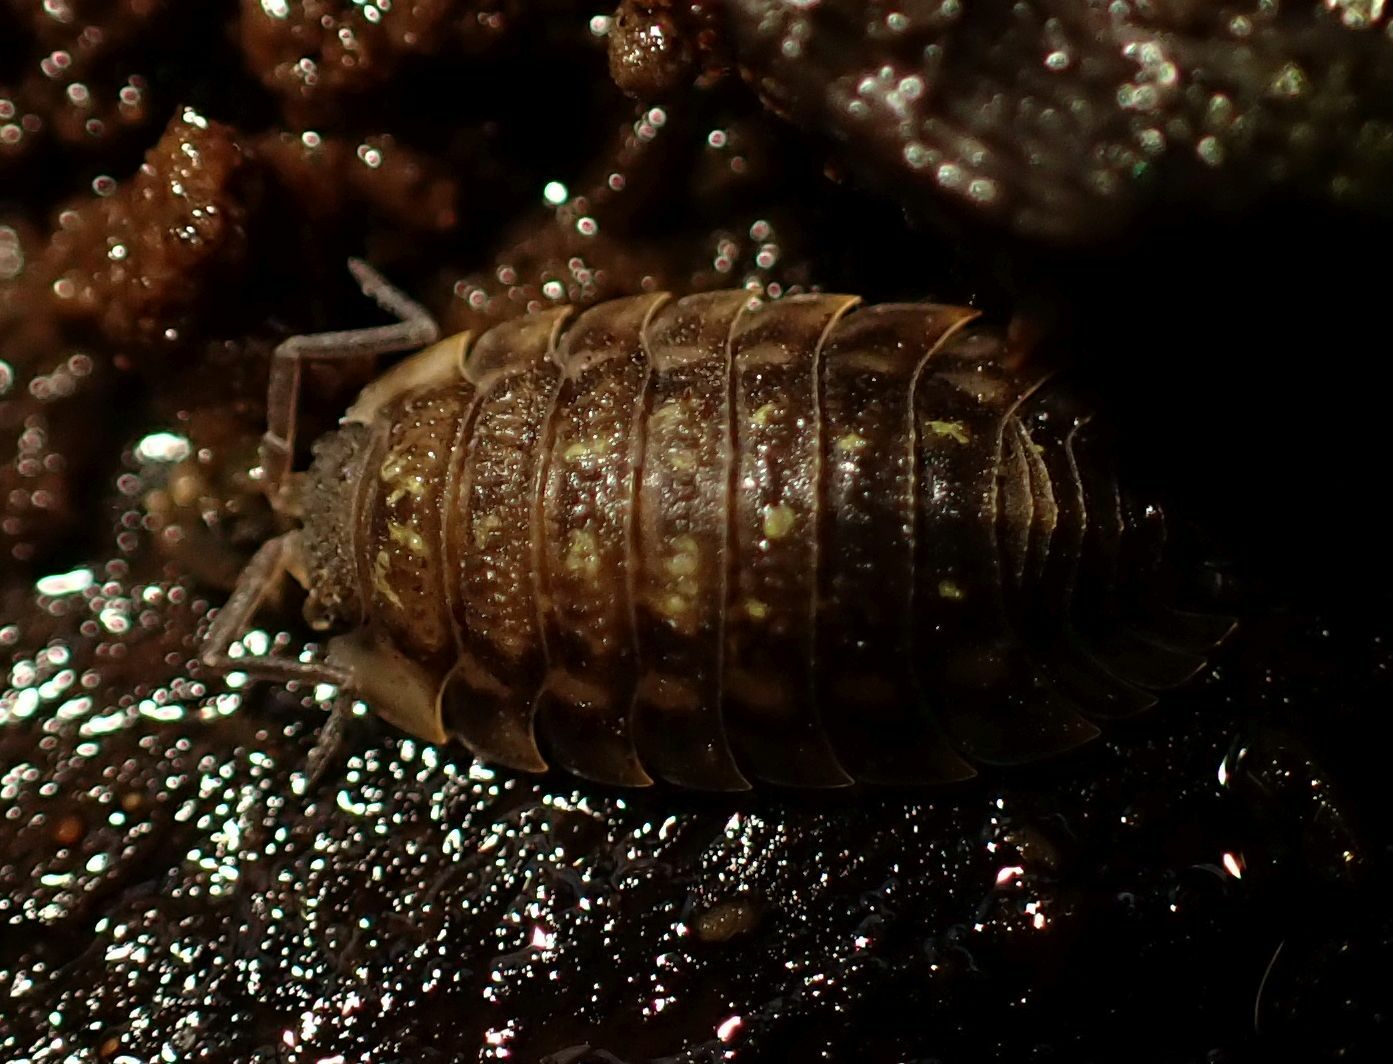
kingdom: Animalia
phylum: Arthropoda
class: Malacostraca
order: Isopoda
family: Oniscidae
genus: Oniscus
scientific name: Oniscus asellus
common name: Common shiny woodlouse
